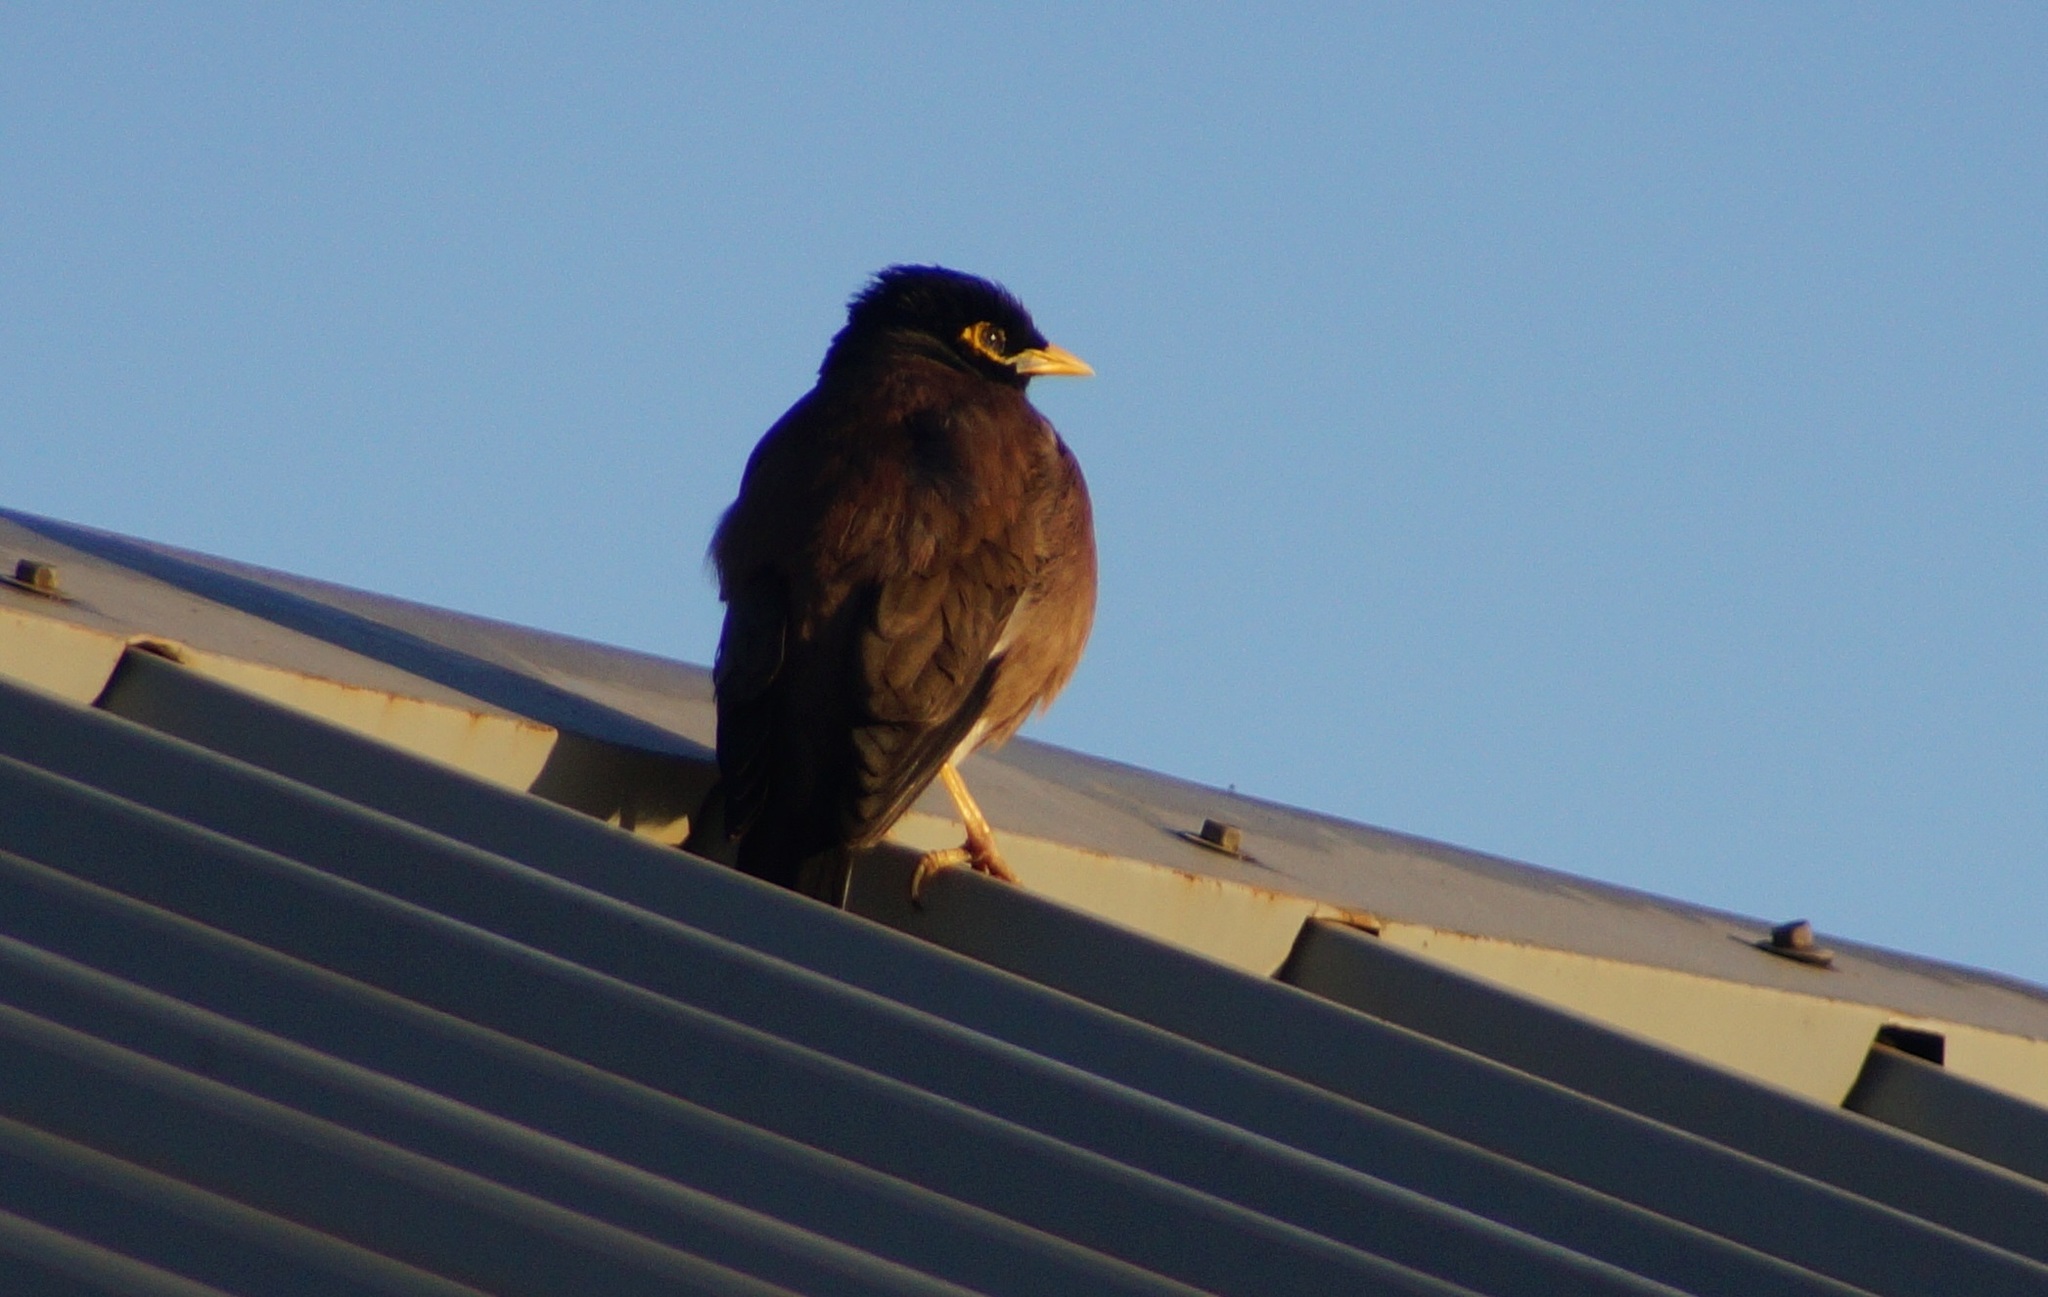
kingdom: Animalia
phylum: Chordata
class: Aves
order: Passeriformes
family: Sturnidae
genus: Acridotheres
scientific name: Acridotheres tristis
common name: Common myna
